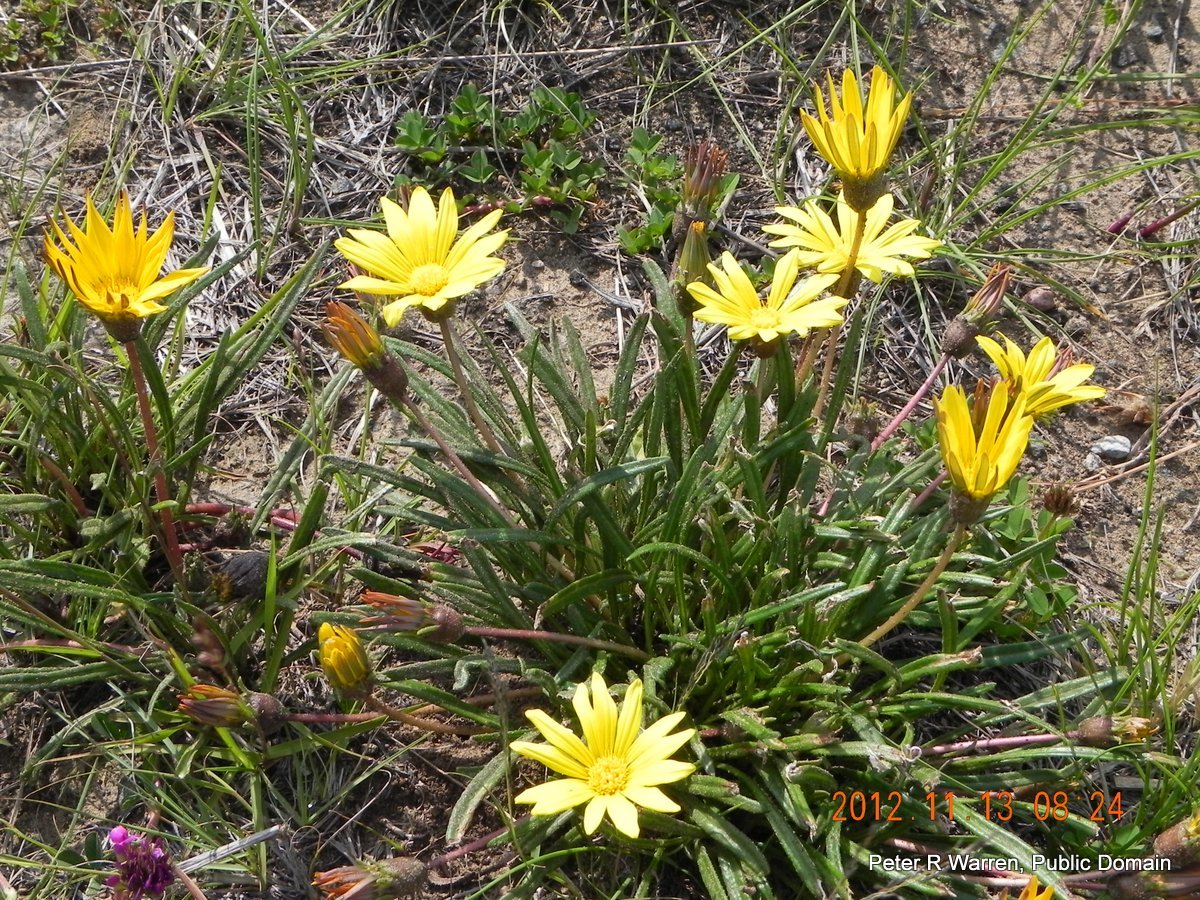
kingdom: Plantae
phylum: Tracheophyta
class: Magnoliopsida
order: Asterales
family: Asteraceae
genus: Gazania
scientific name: Gazania krebsiana
